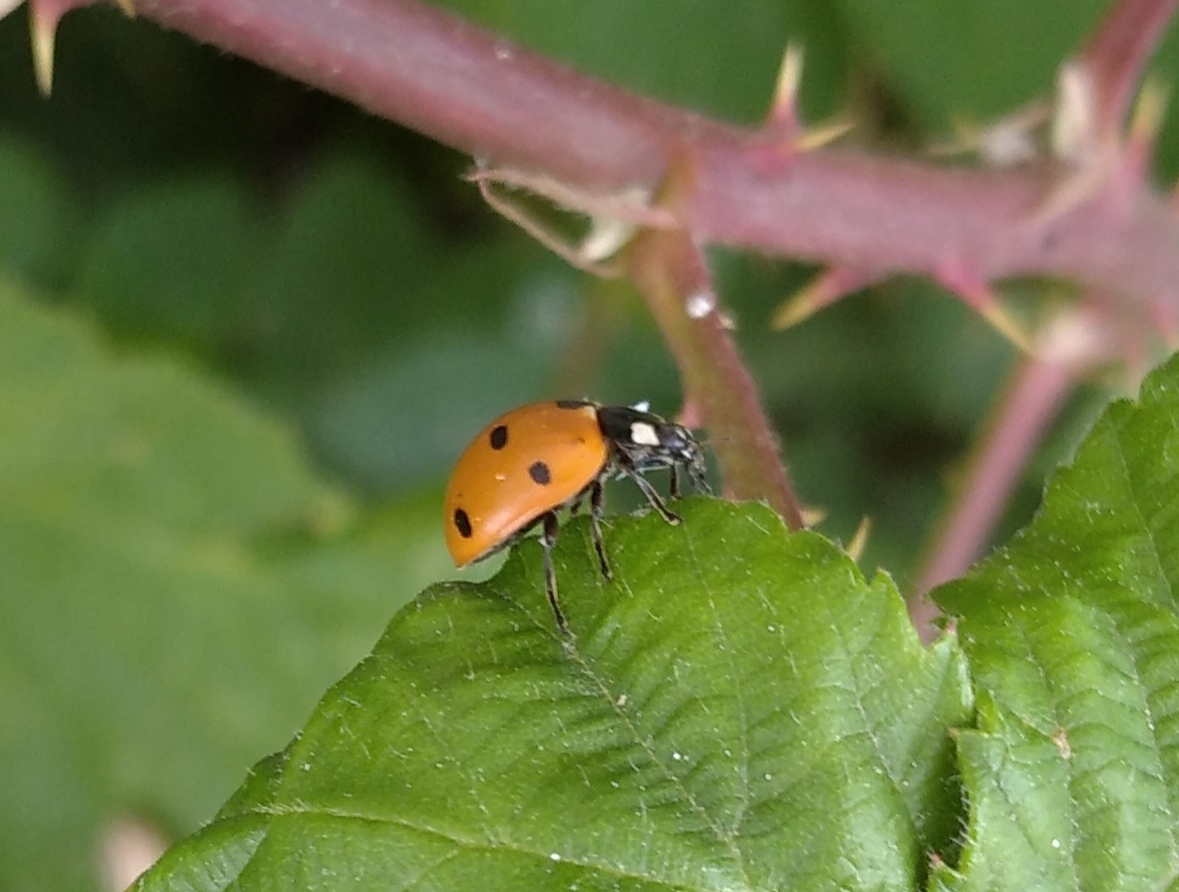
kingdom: Animalia
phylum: Arthropoda
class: Insecta
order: Coleoptera
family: Coccinellidae
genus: Coccinella
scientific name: Coccinella septempunctata
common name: Sevenspotted lady beetle
